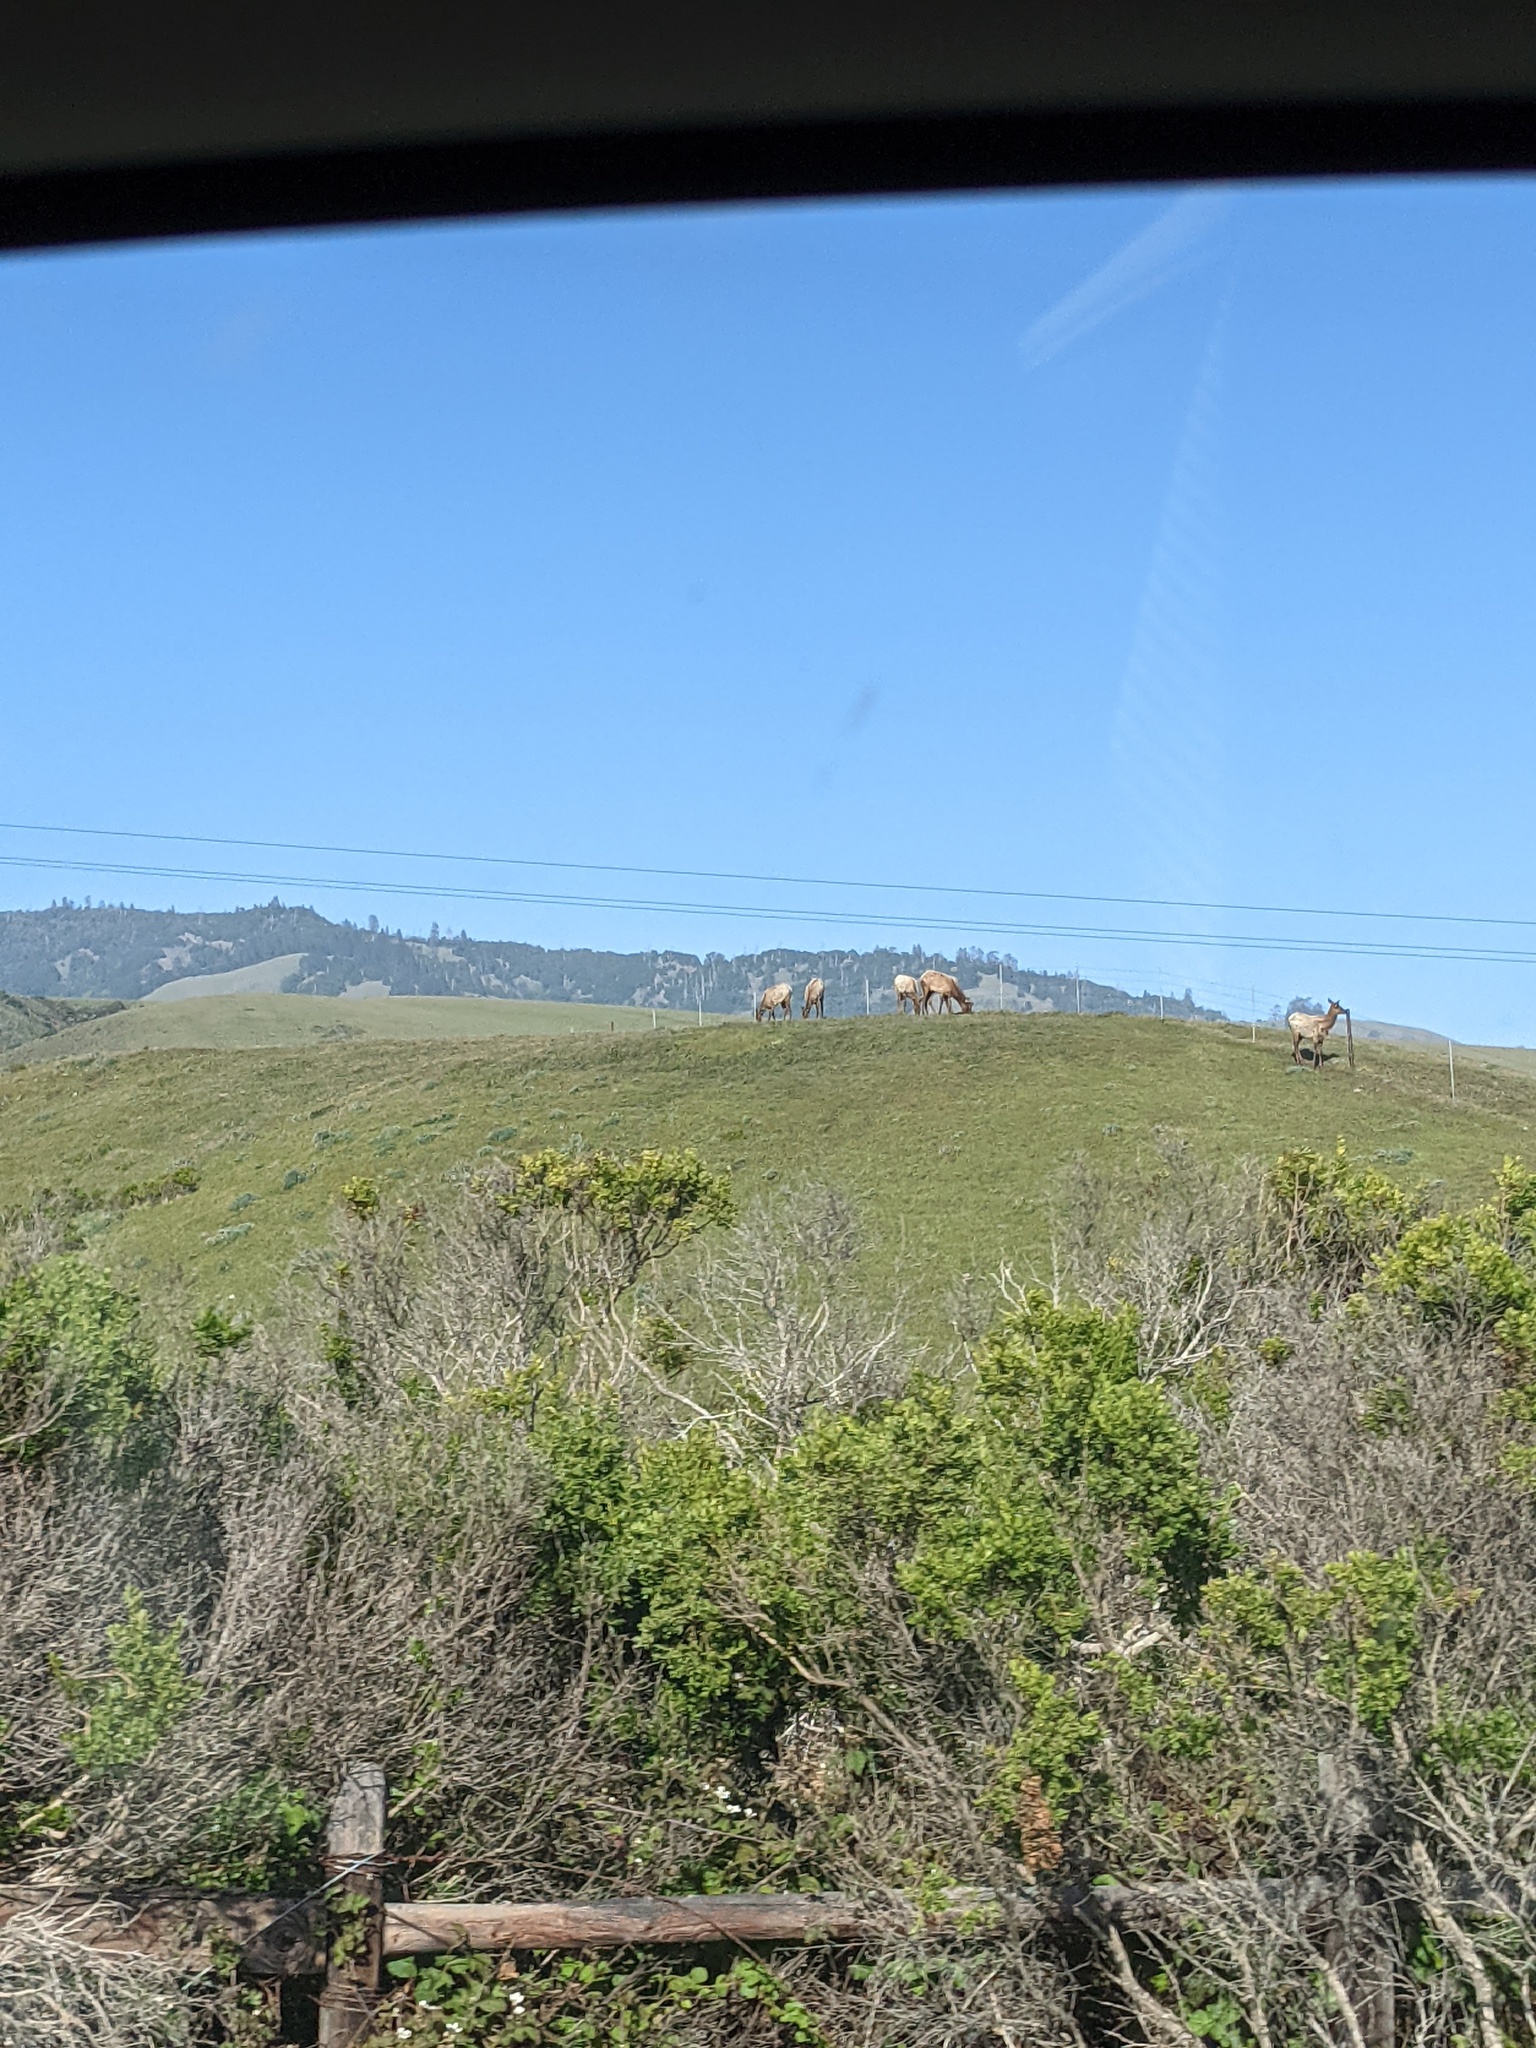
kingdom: Animalia
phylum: Chordata
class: Mammalia
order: Artiodactyla
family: Cervidae
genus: Cervus
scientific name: Cervus elaphus
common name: Red deer
